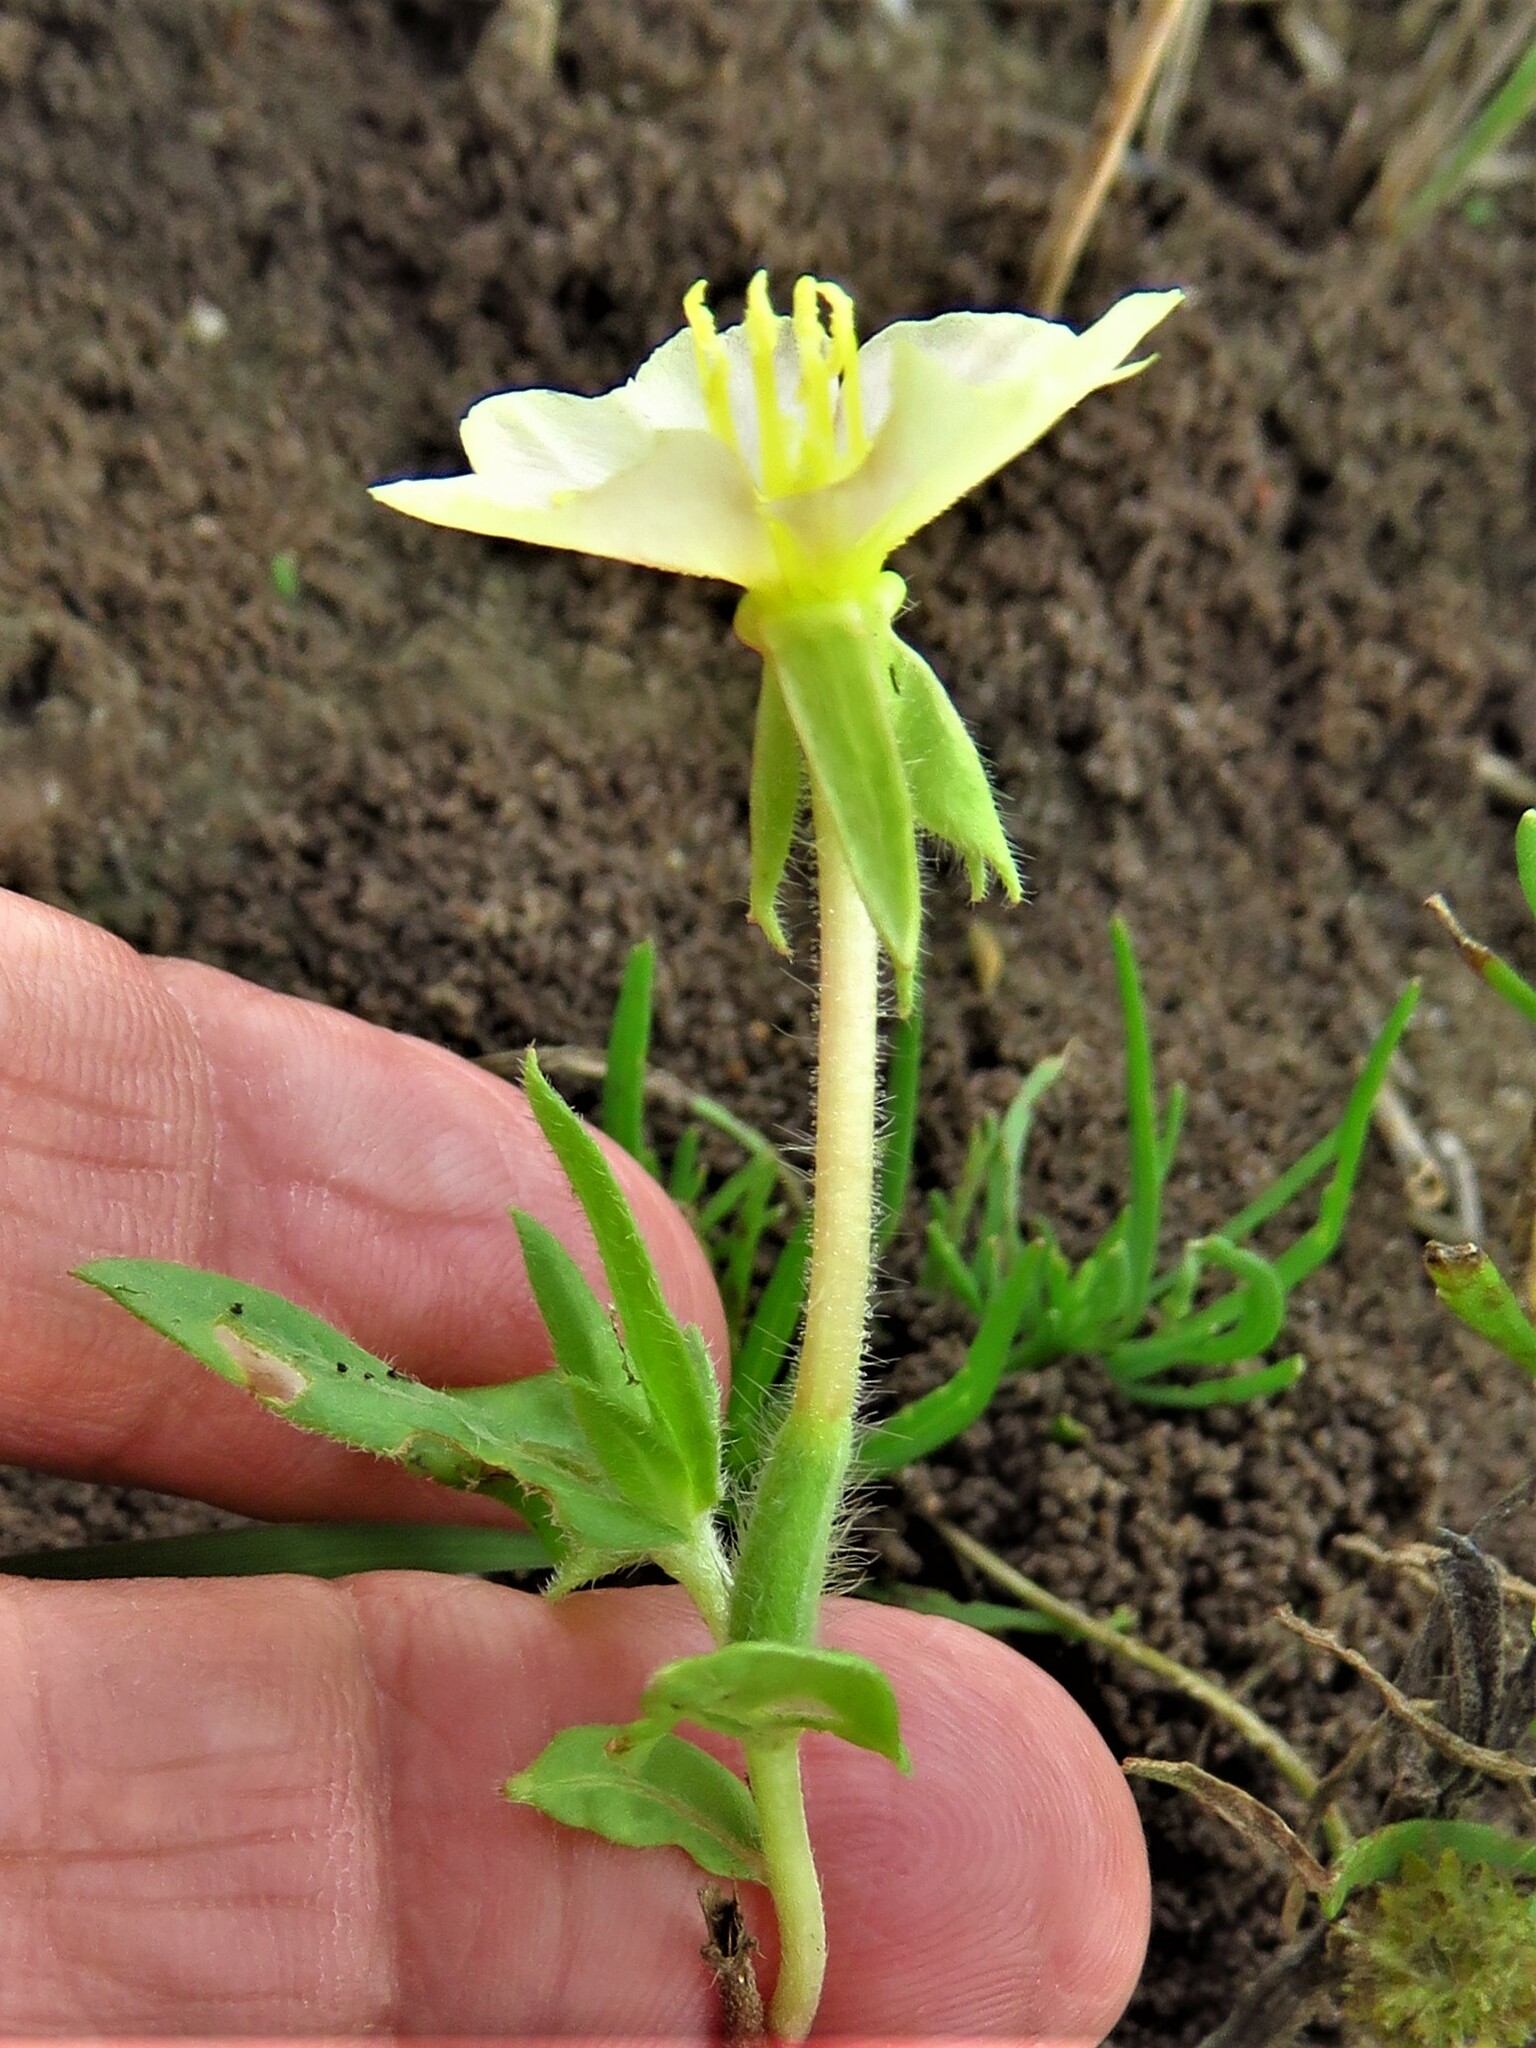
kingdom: Plantae
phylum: Tracheophyta
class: Magnoliopsida
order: Myrtales
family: Onagraceae
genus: Oenothera
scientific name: Oenothera laciniata
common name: Cut-leaved evening-primrose
